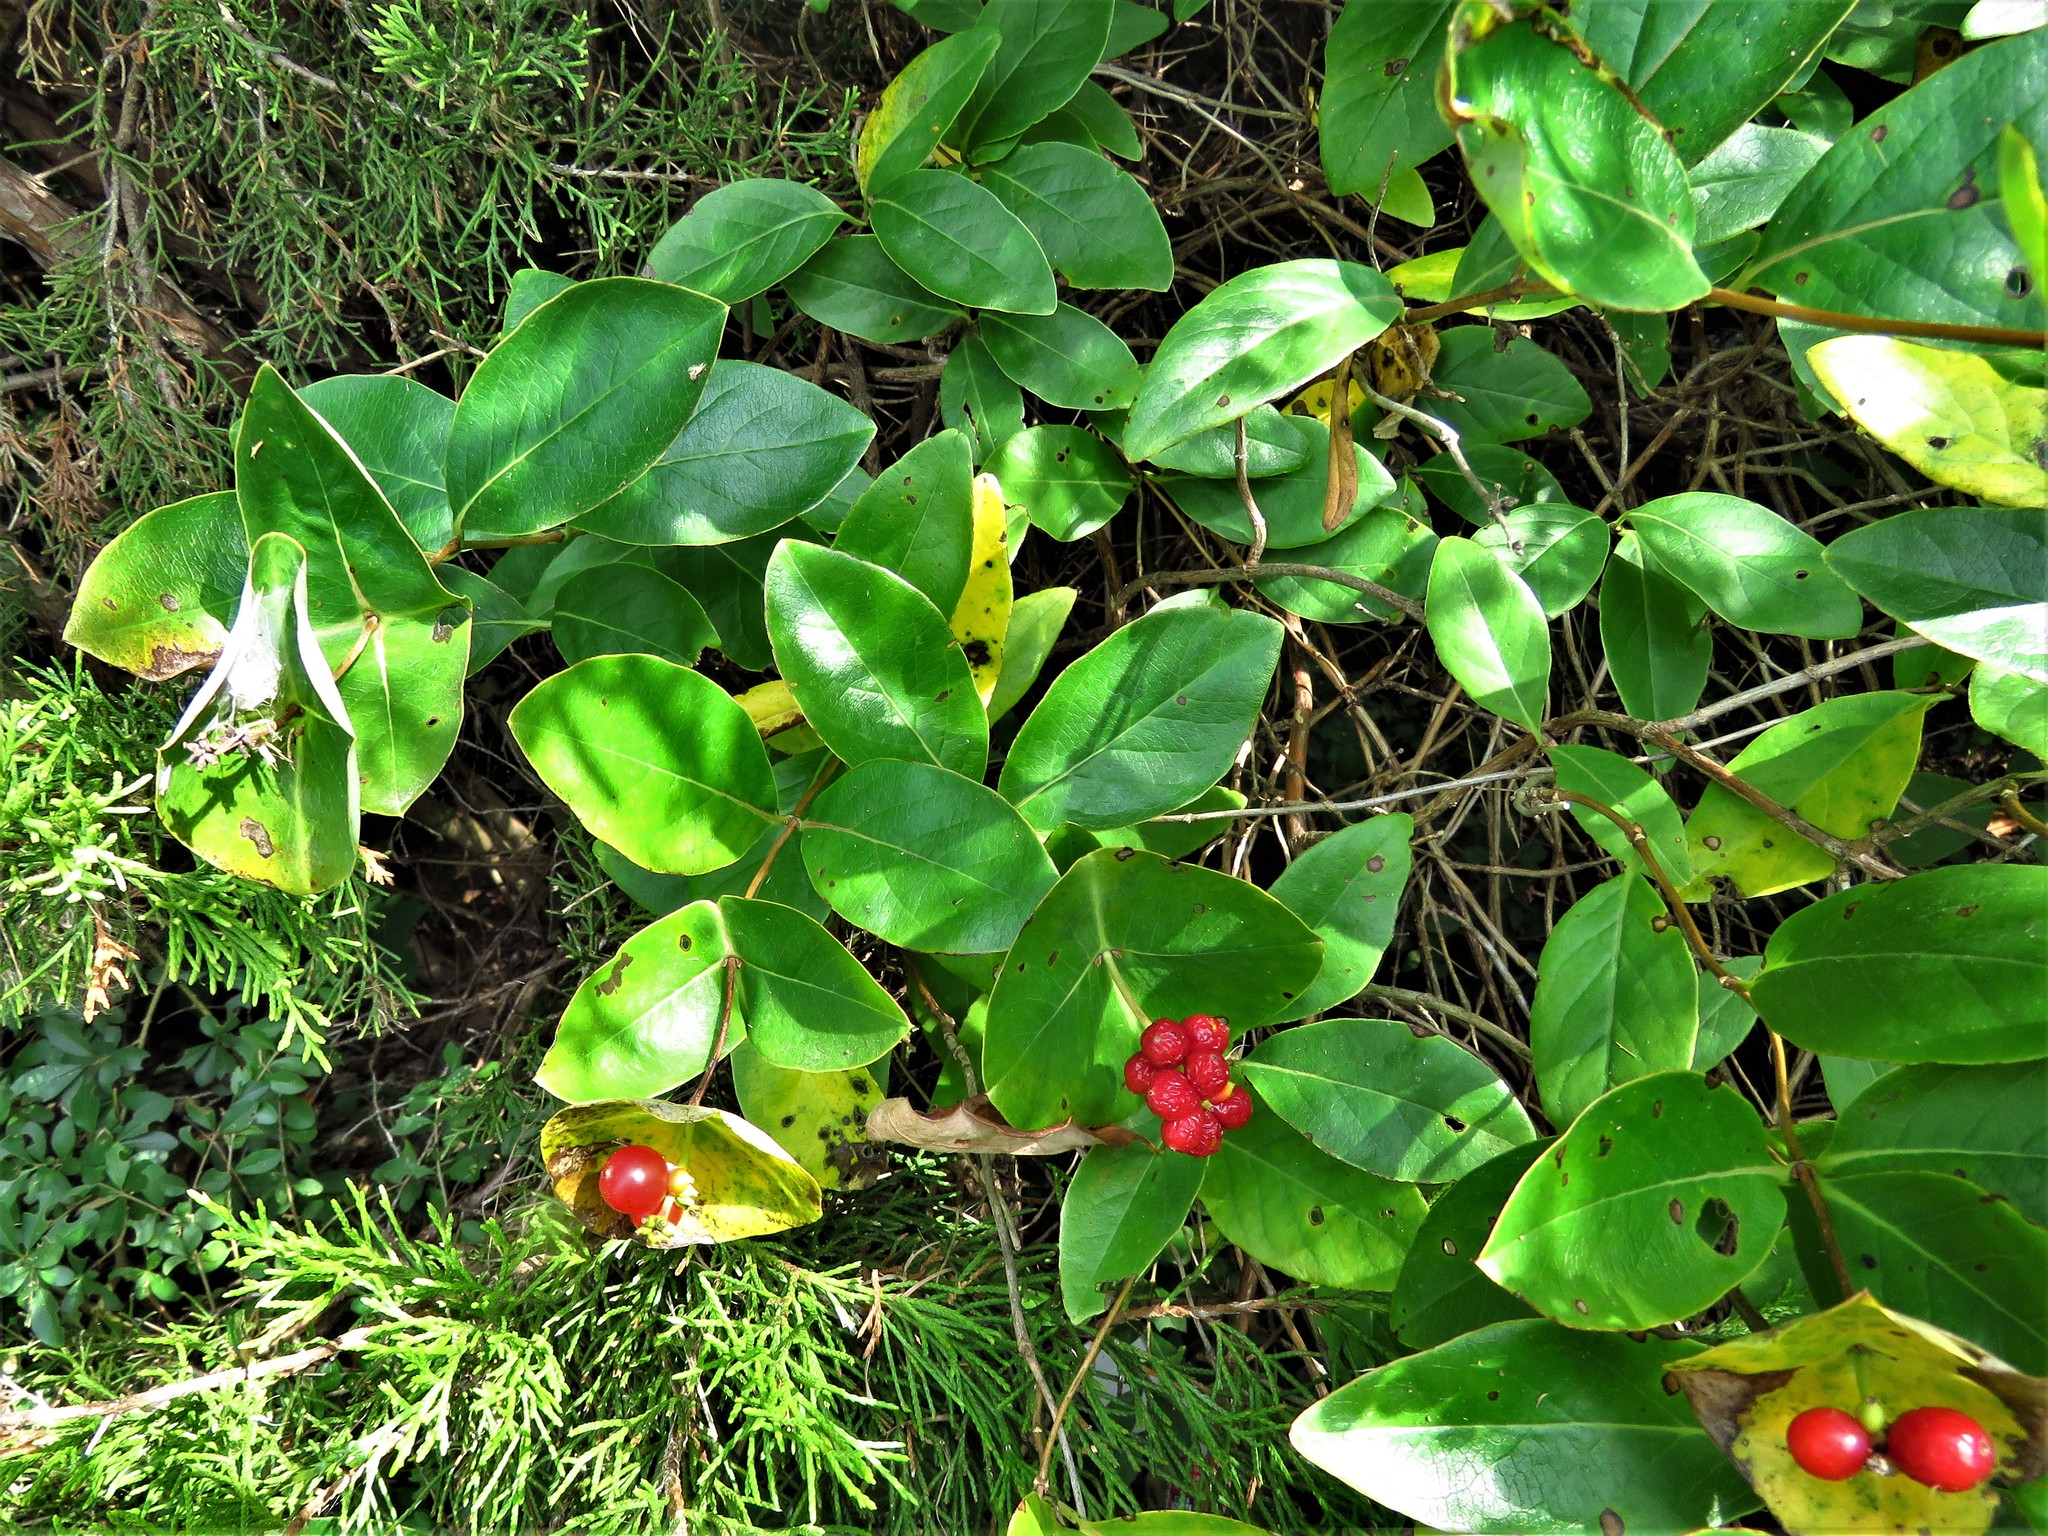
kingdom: Plantae
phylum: Tracheophyta
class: Magnoliopsida
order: Dipsacales
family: Caprifoliaceae
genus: Lonicera
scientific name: Lonicera sempervirens
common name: Coral honeysuckle
